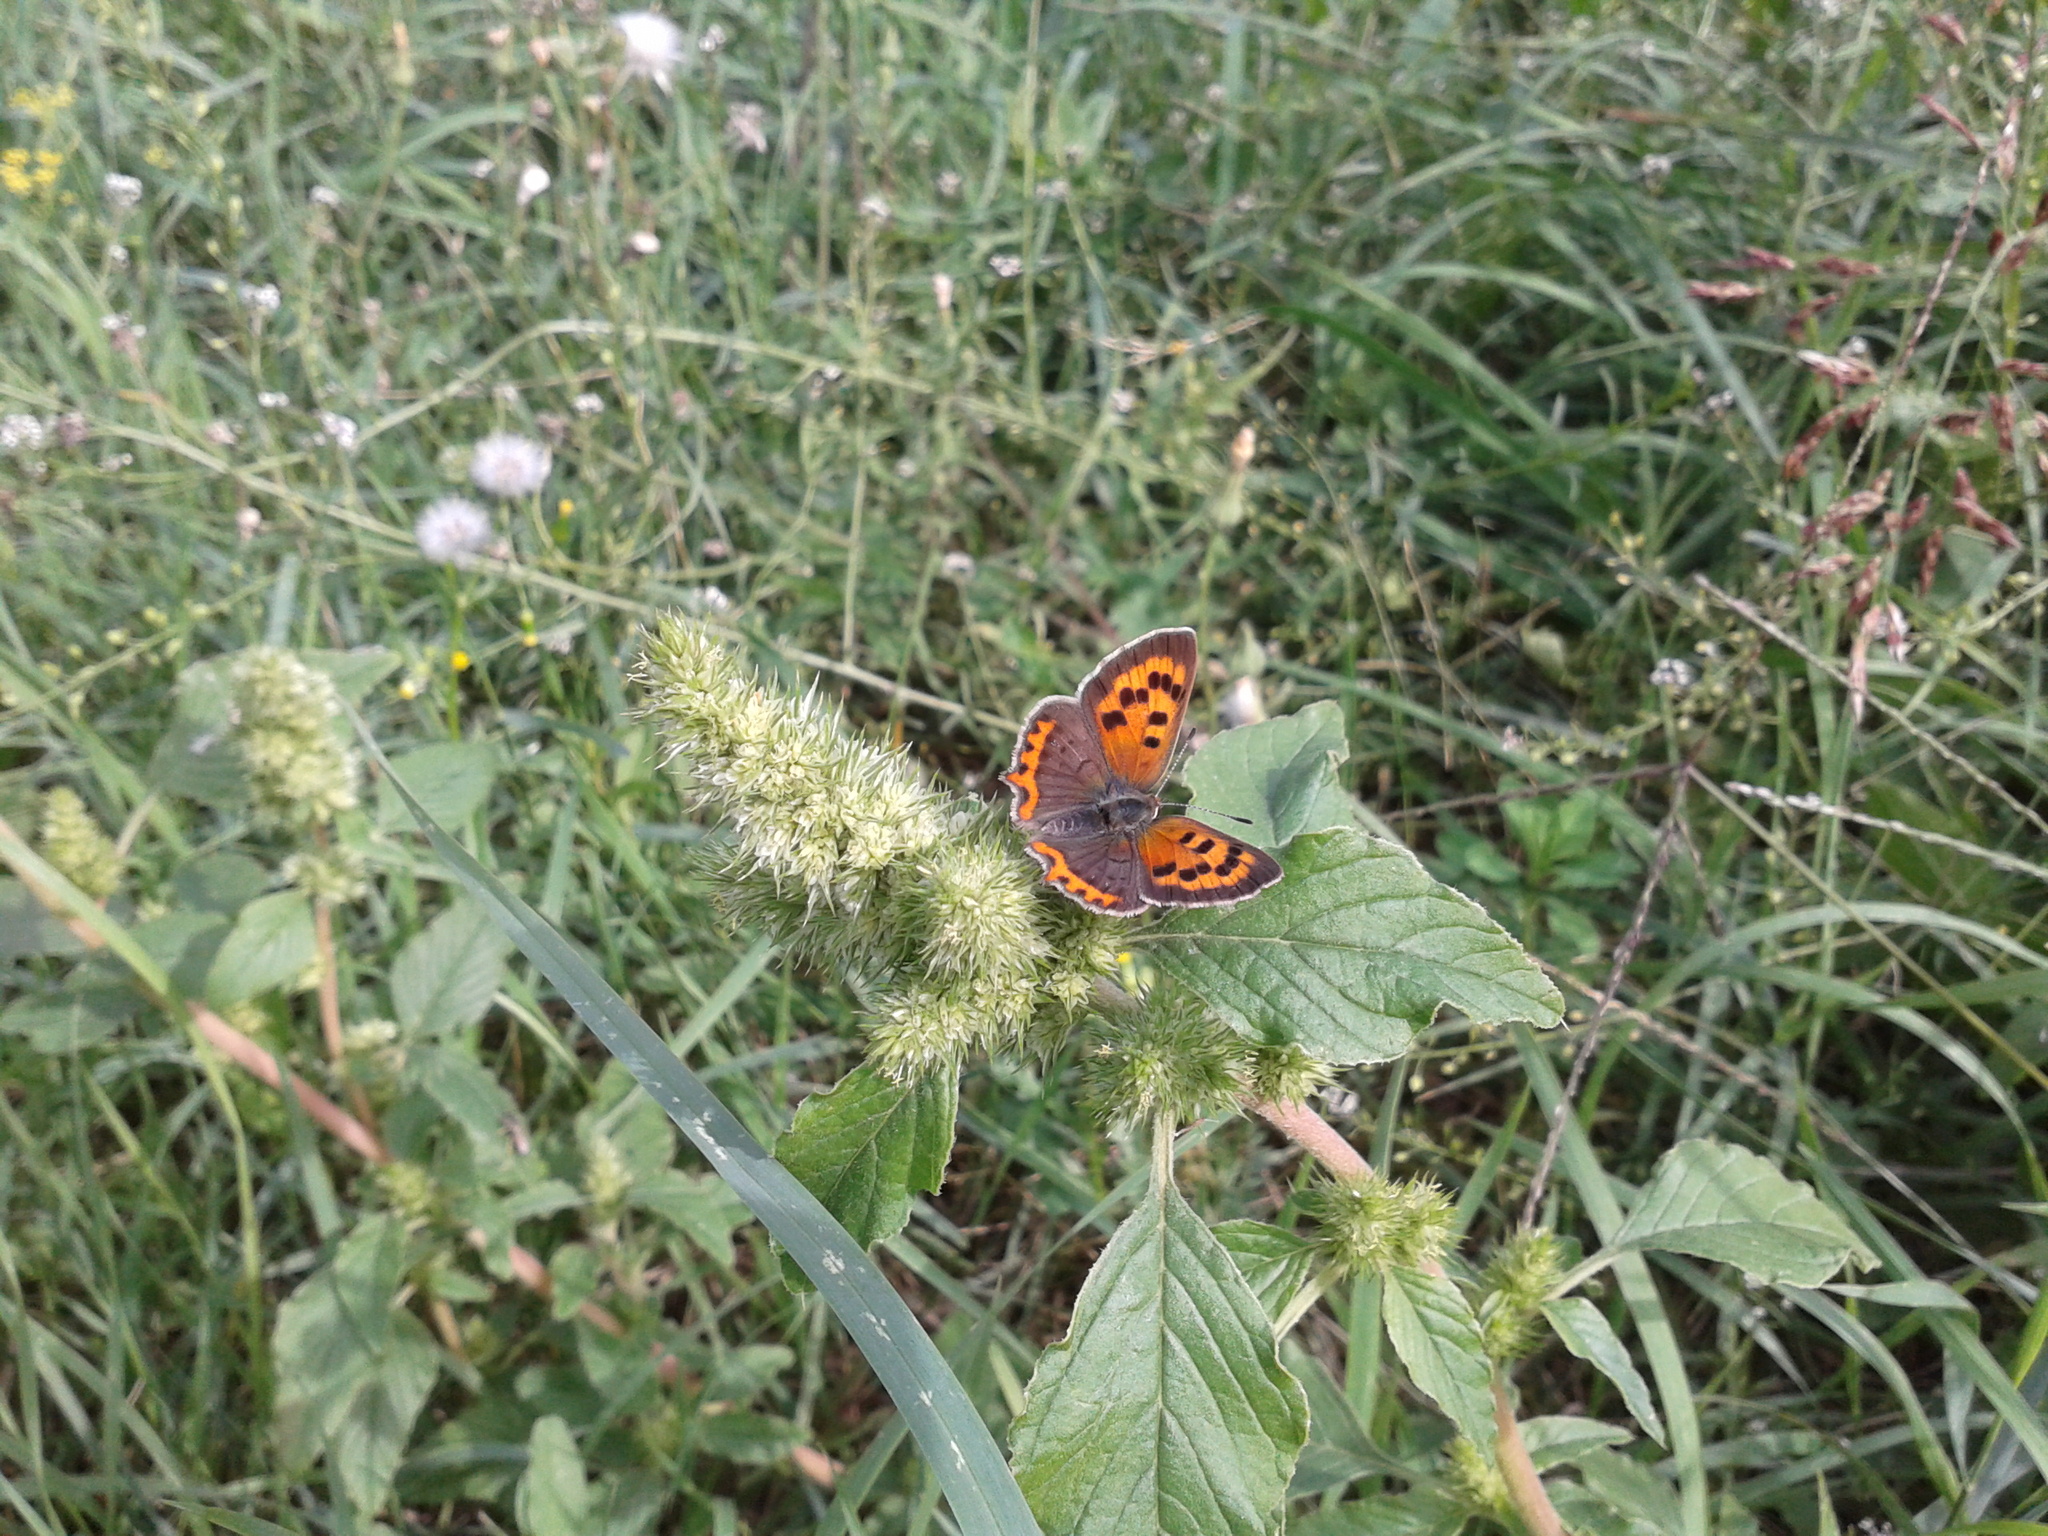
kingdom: Animalia
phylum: Arthropoda
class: Insecta
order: Lepidoptera
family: Lycaenidae
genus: Lycaena
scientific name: Lycaena phlaeas
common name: Small copper
